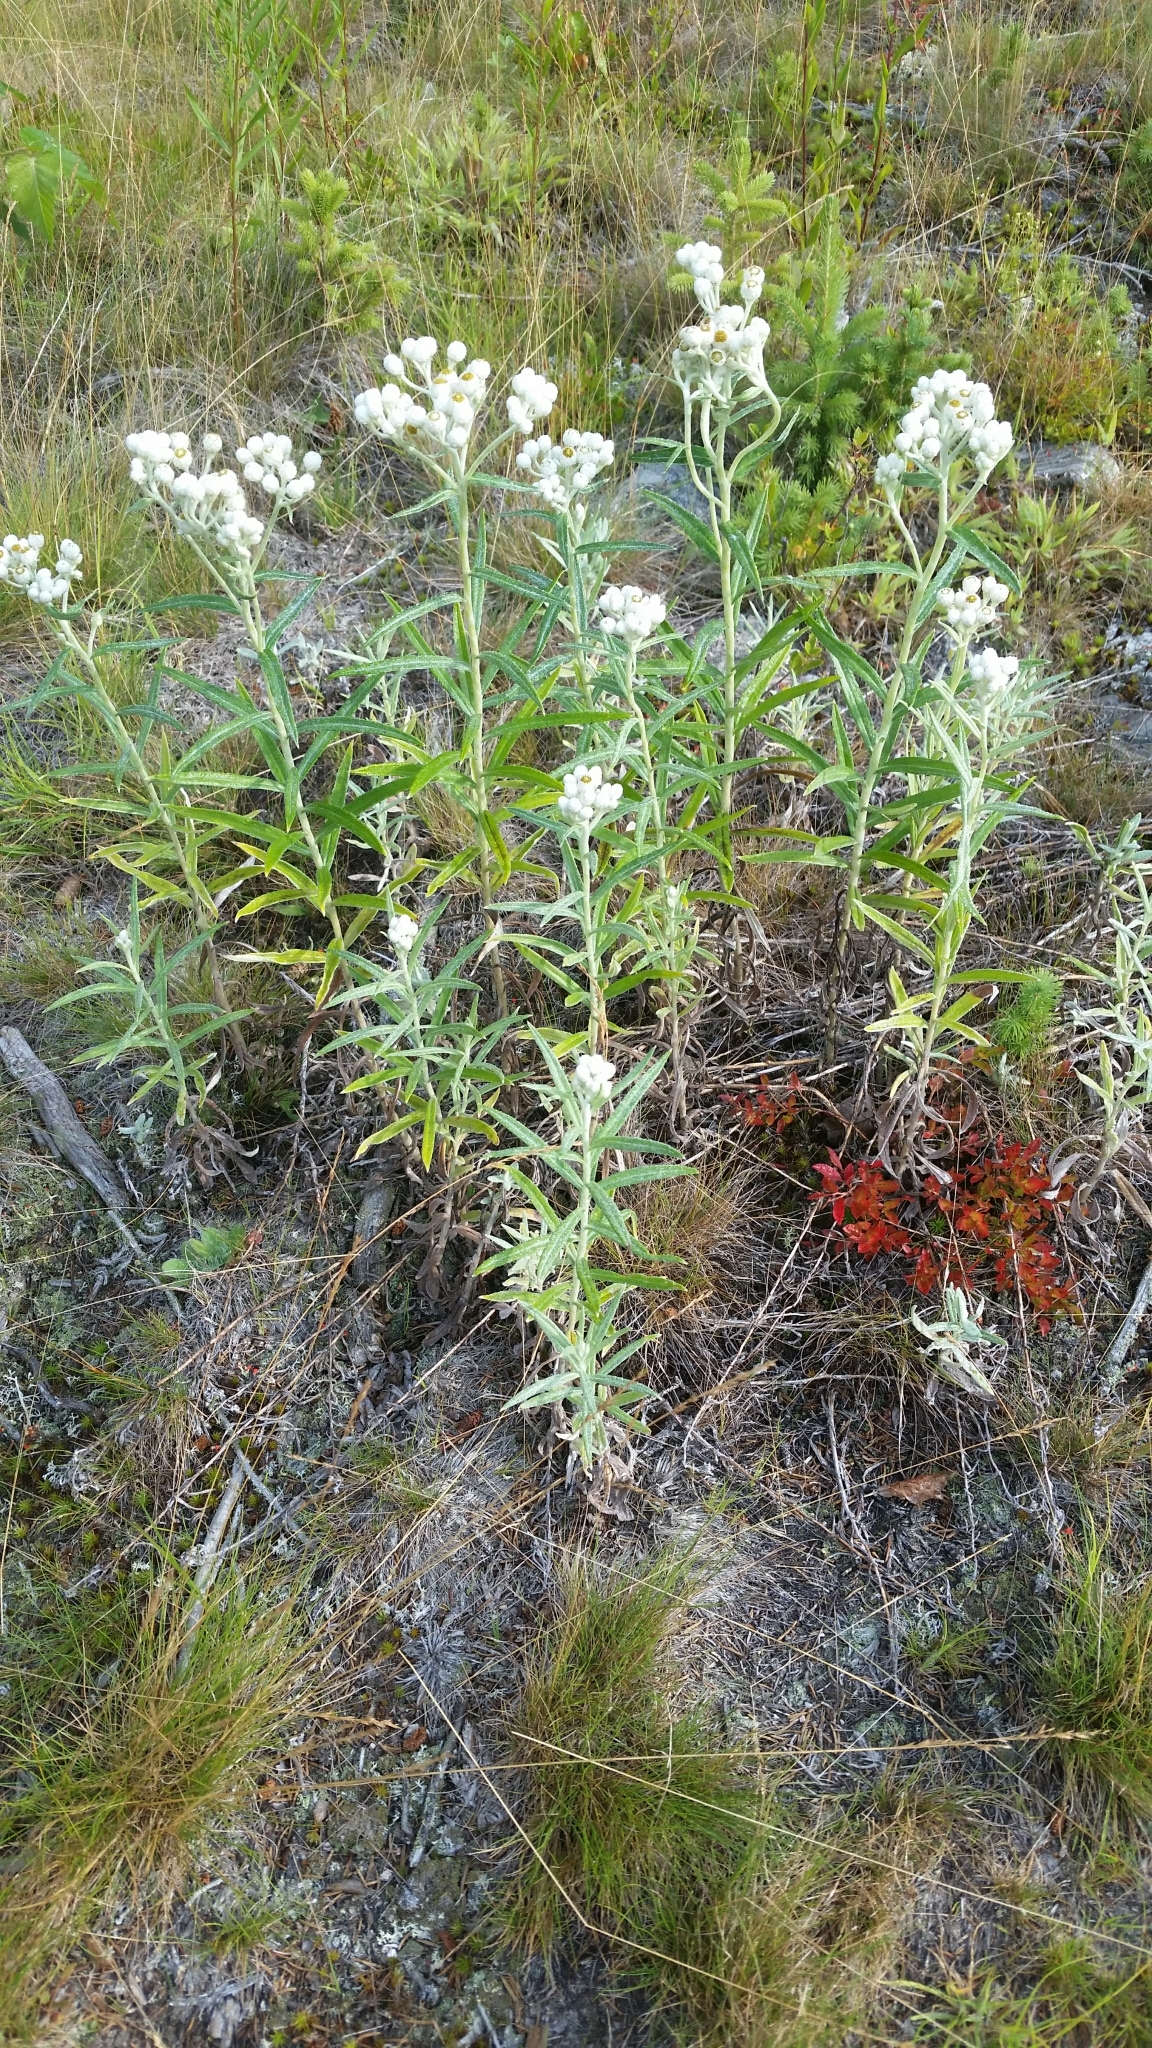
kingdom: Plantae
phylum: Tracheophyta
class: Magnoliopsida
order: Asterales
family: Asteraceae
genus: Anaphalis
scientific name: Anaphalis margaritacea
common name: Pearly everlasting
